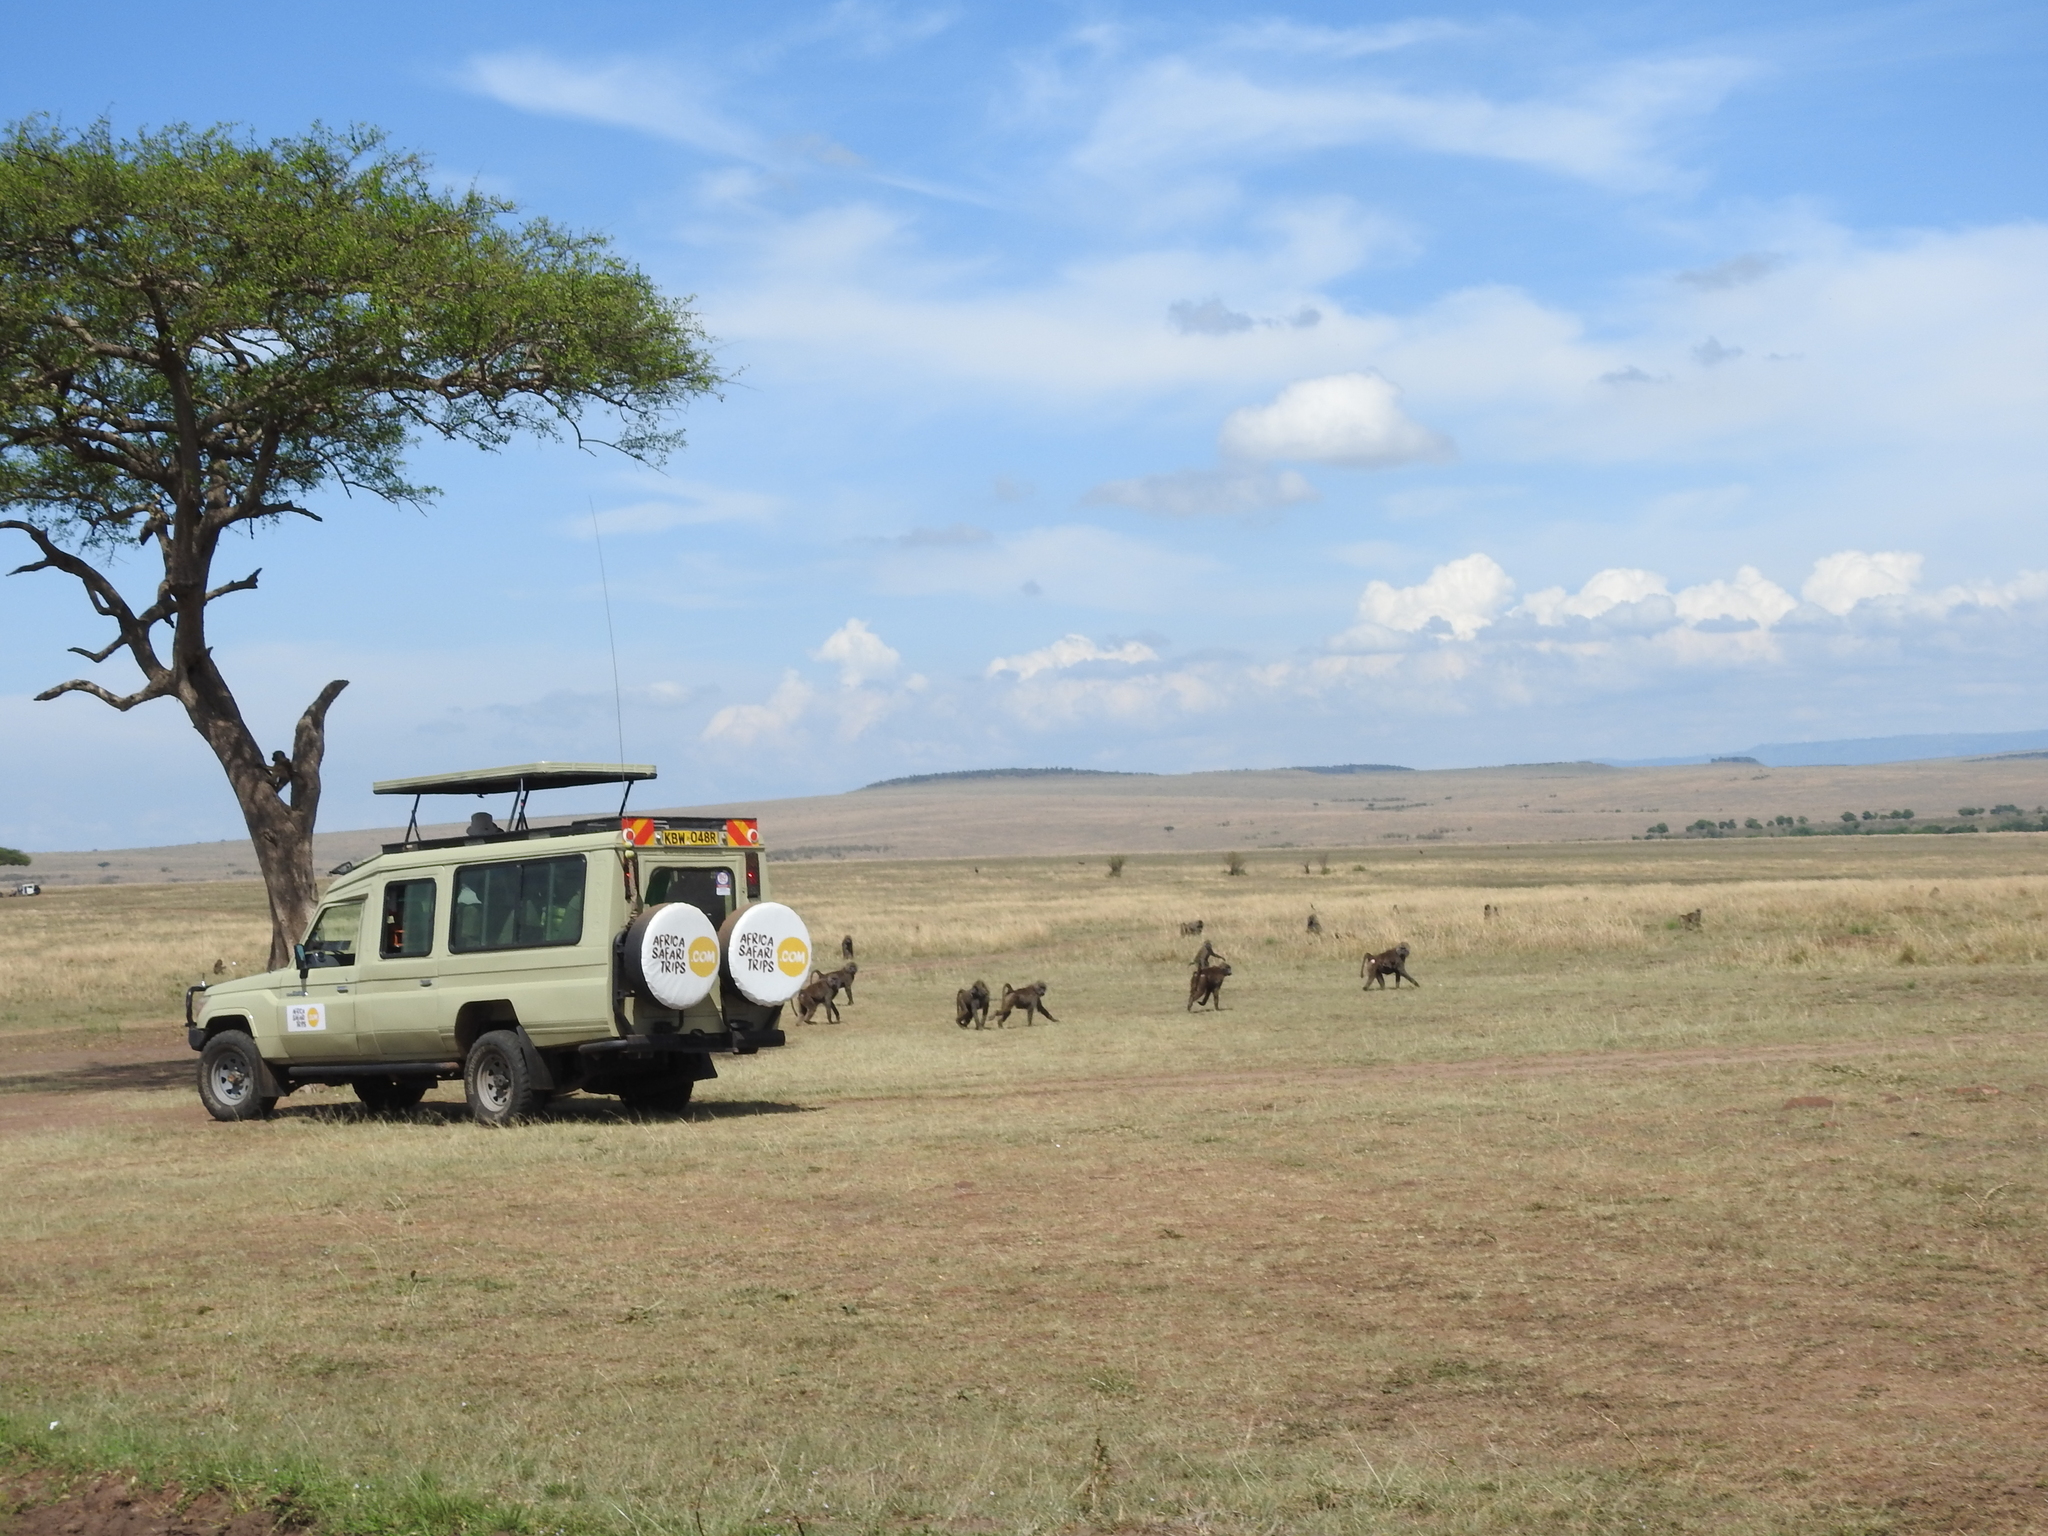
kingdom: Animalia
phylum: Chordata
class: Mammalia
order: Primates
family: Cercopithecidae
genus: Papio
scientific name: Papio anubis
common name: Olive baboon
